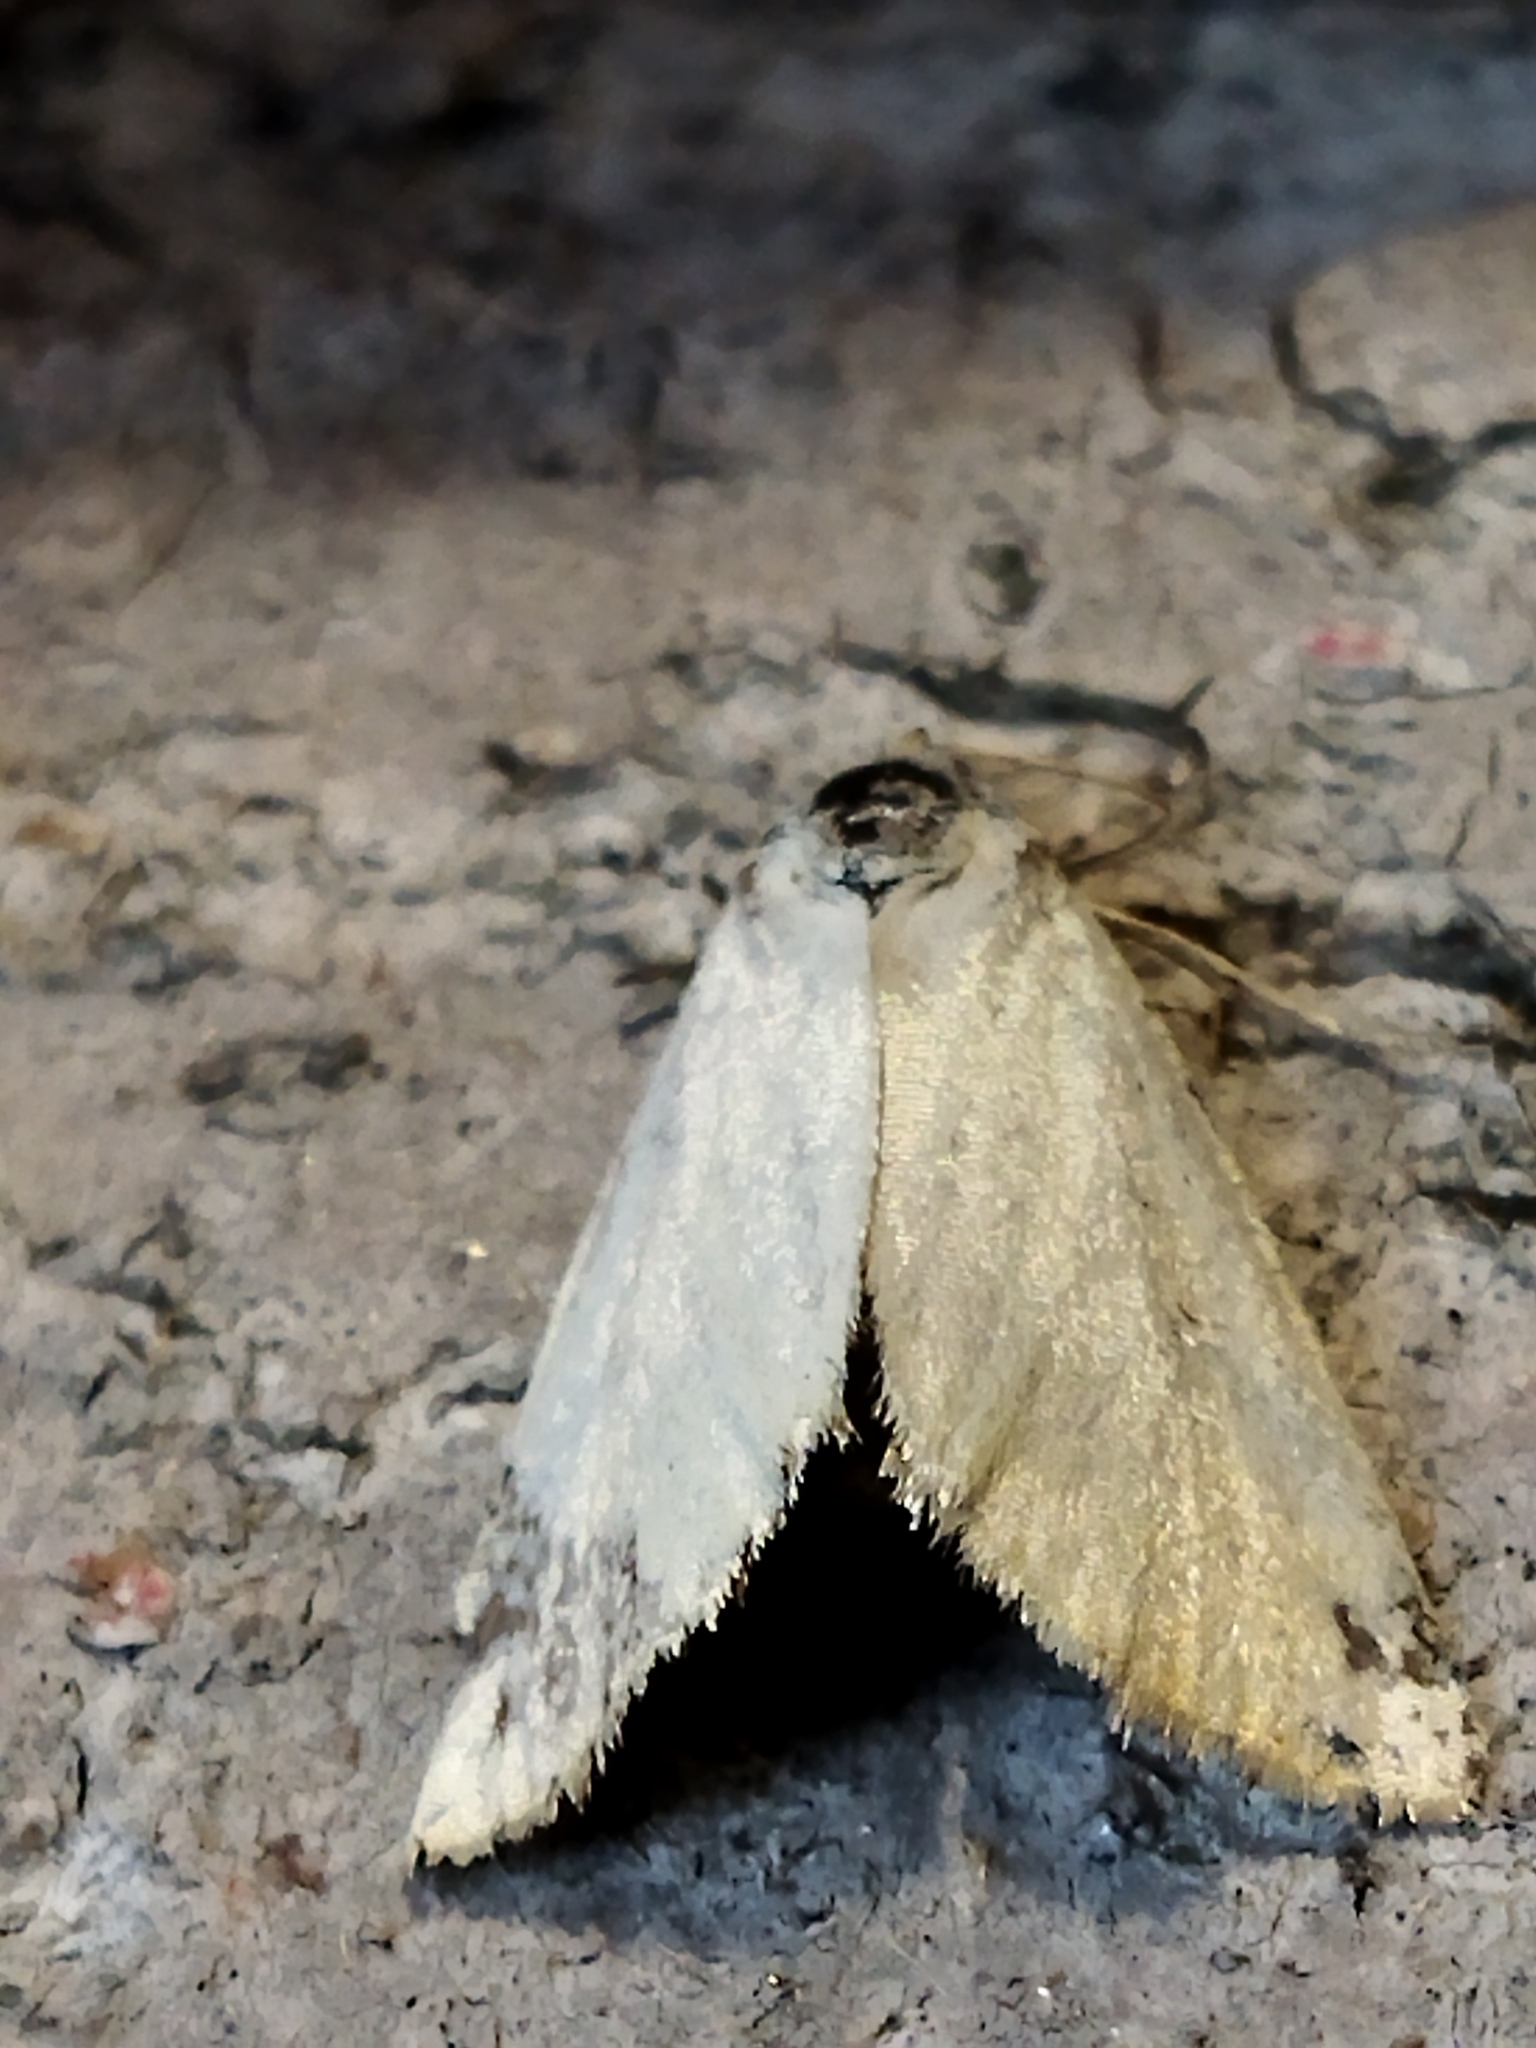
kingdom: Animalia
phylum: Arthropoda
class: Insecta
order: Lepidoptera
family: Noctuidae
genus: Aegle
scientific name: Aegle kaekeritziana
